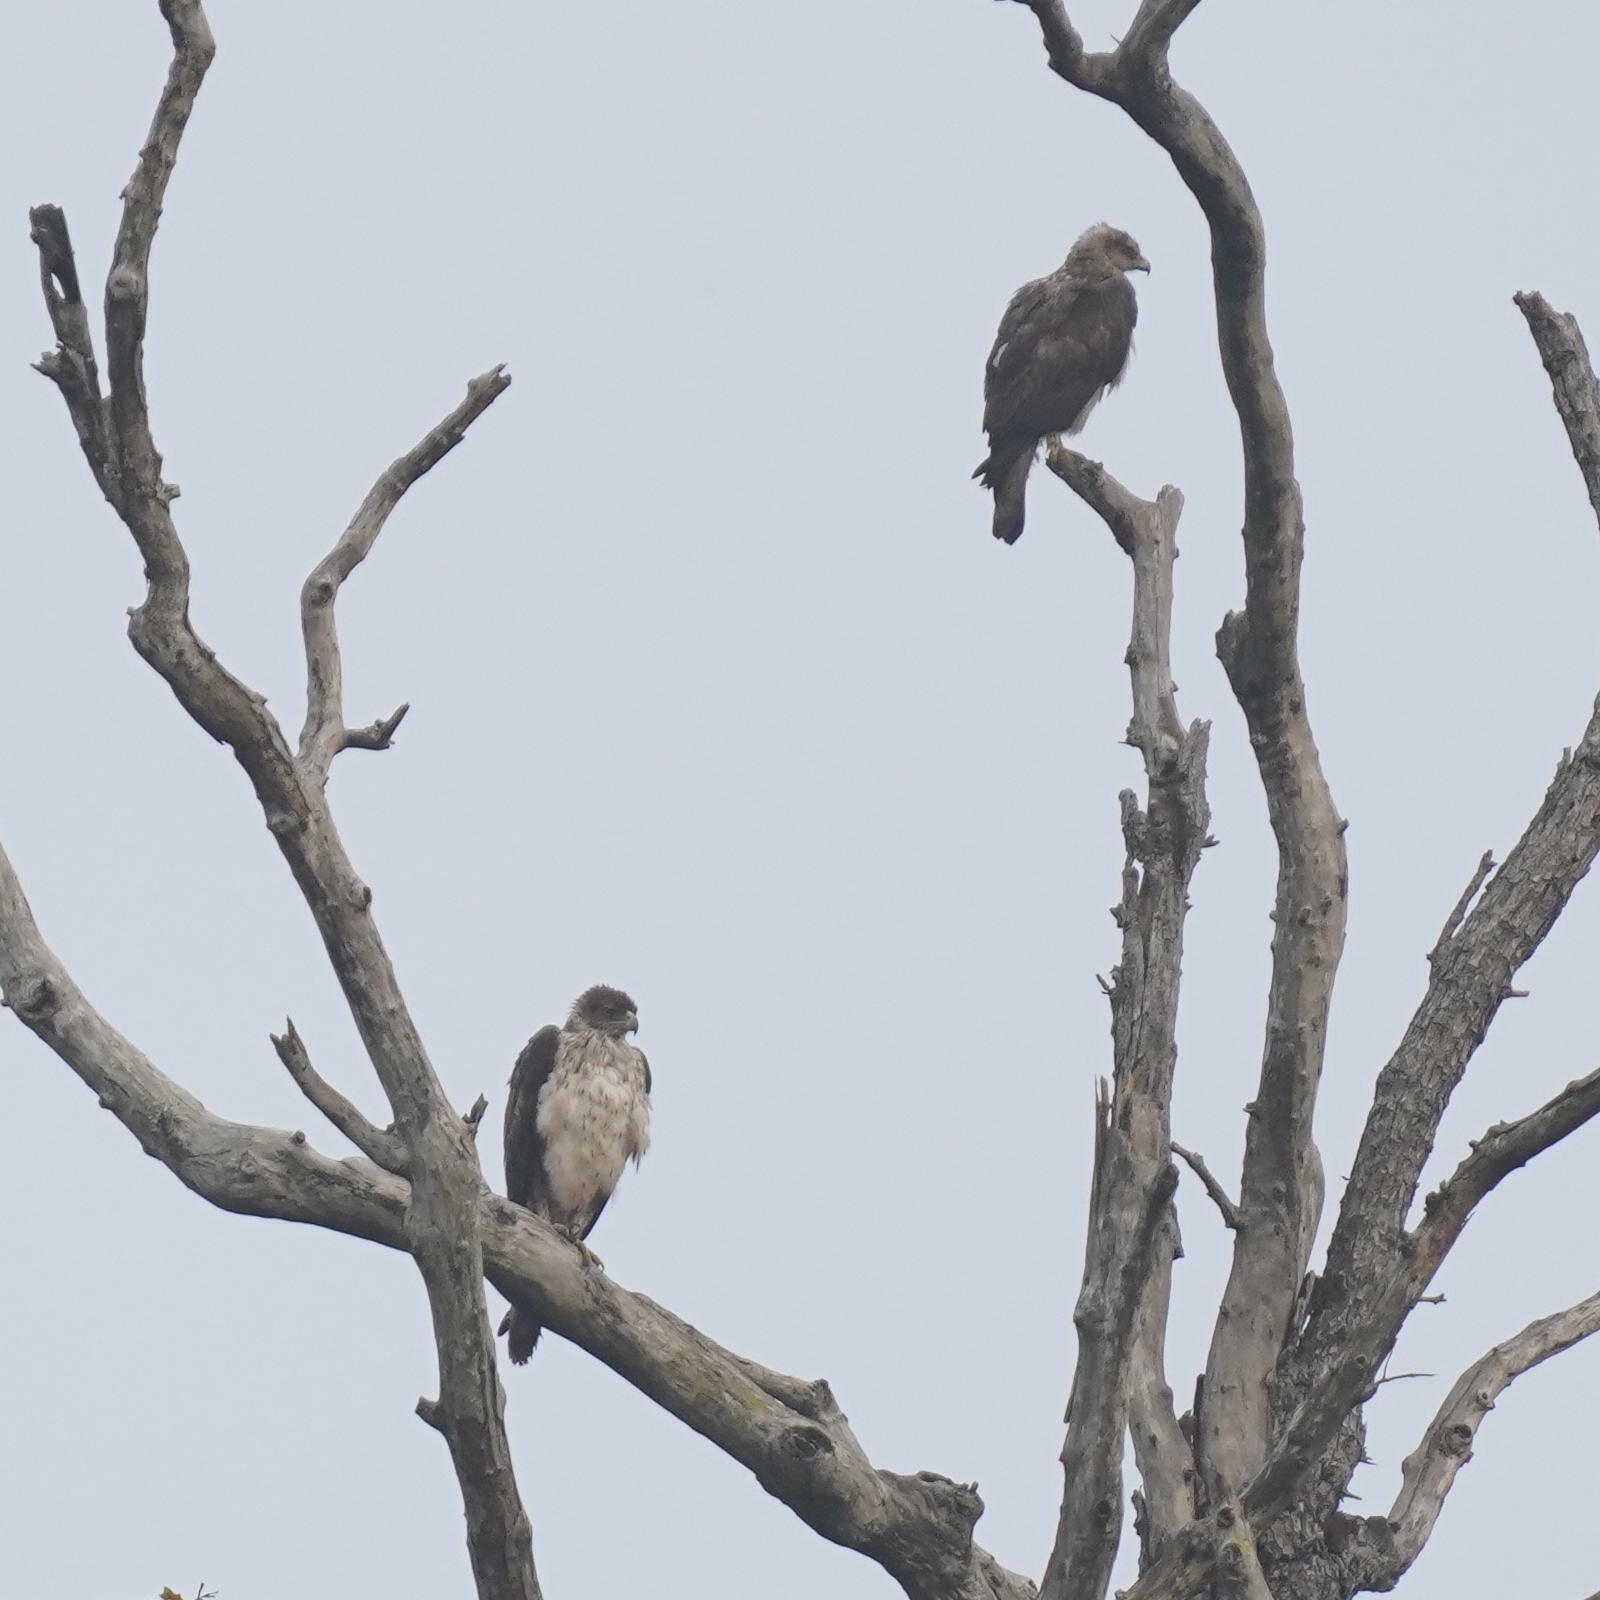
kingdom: Animalia
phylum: Chordata
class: Aves
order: Accipitriformes
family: Accipitridae
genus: Aquila
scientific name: Aquila fasciata
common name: Bonelli's eagle
